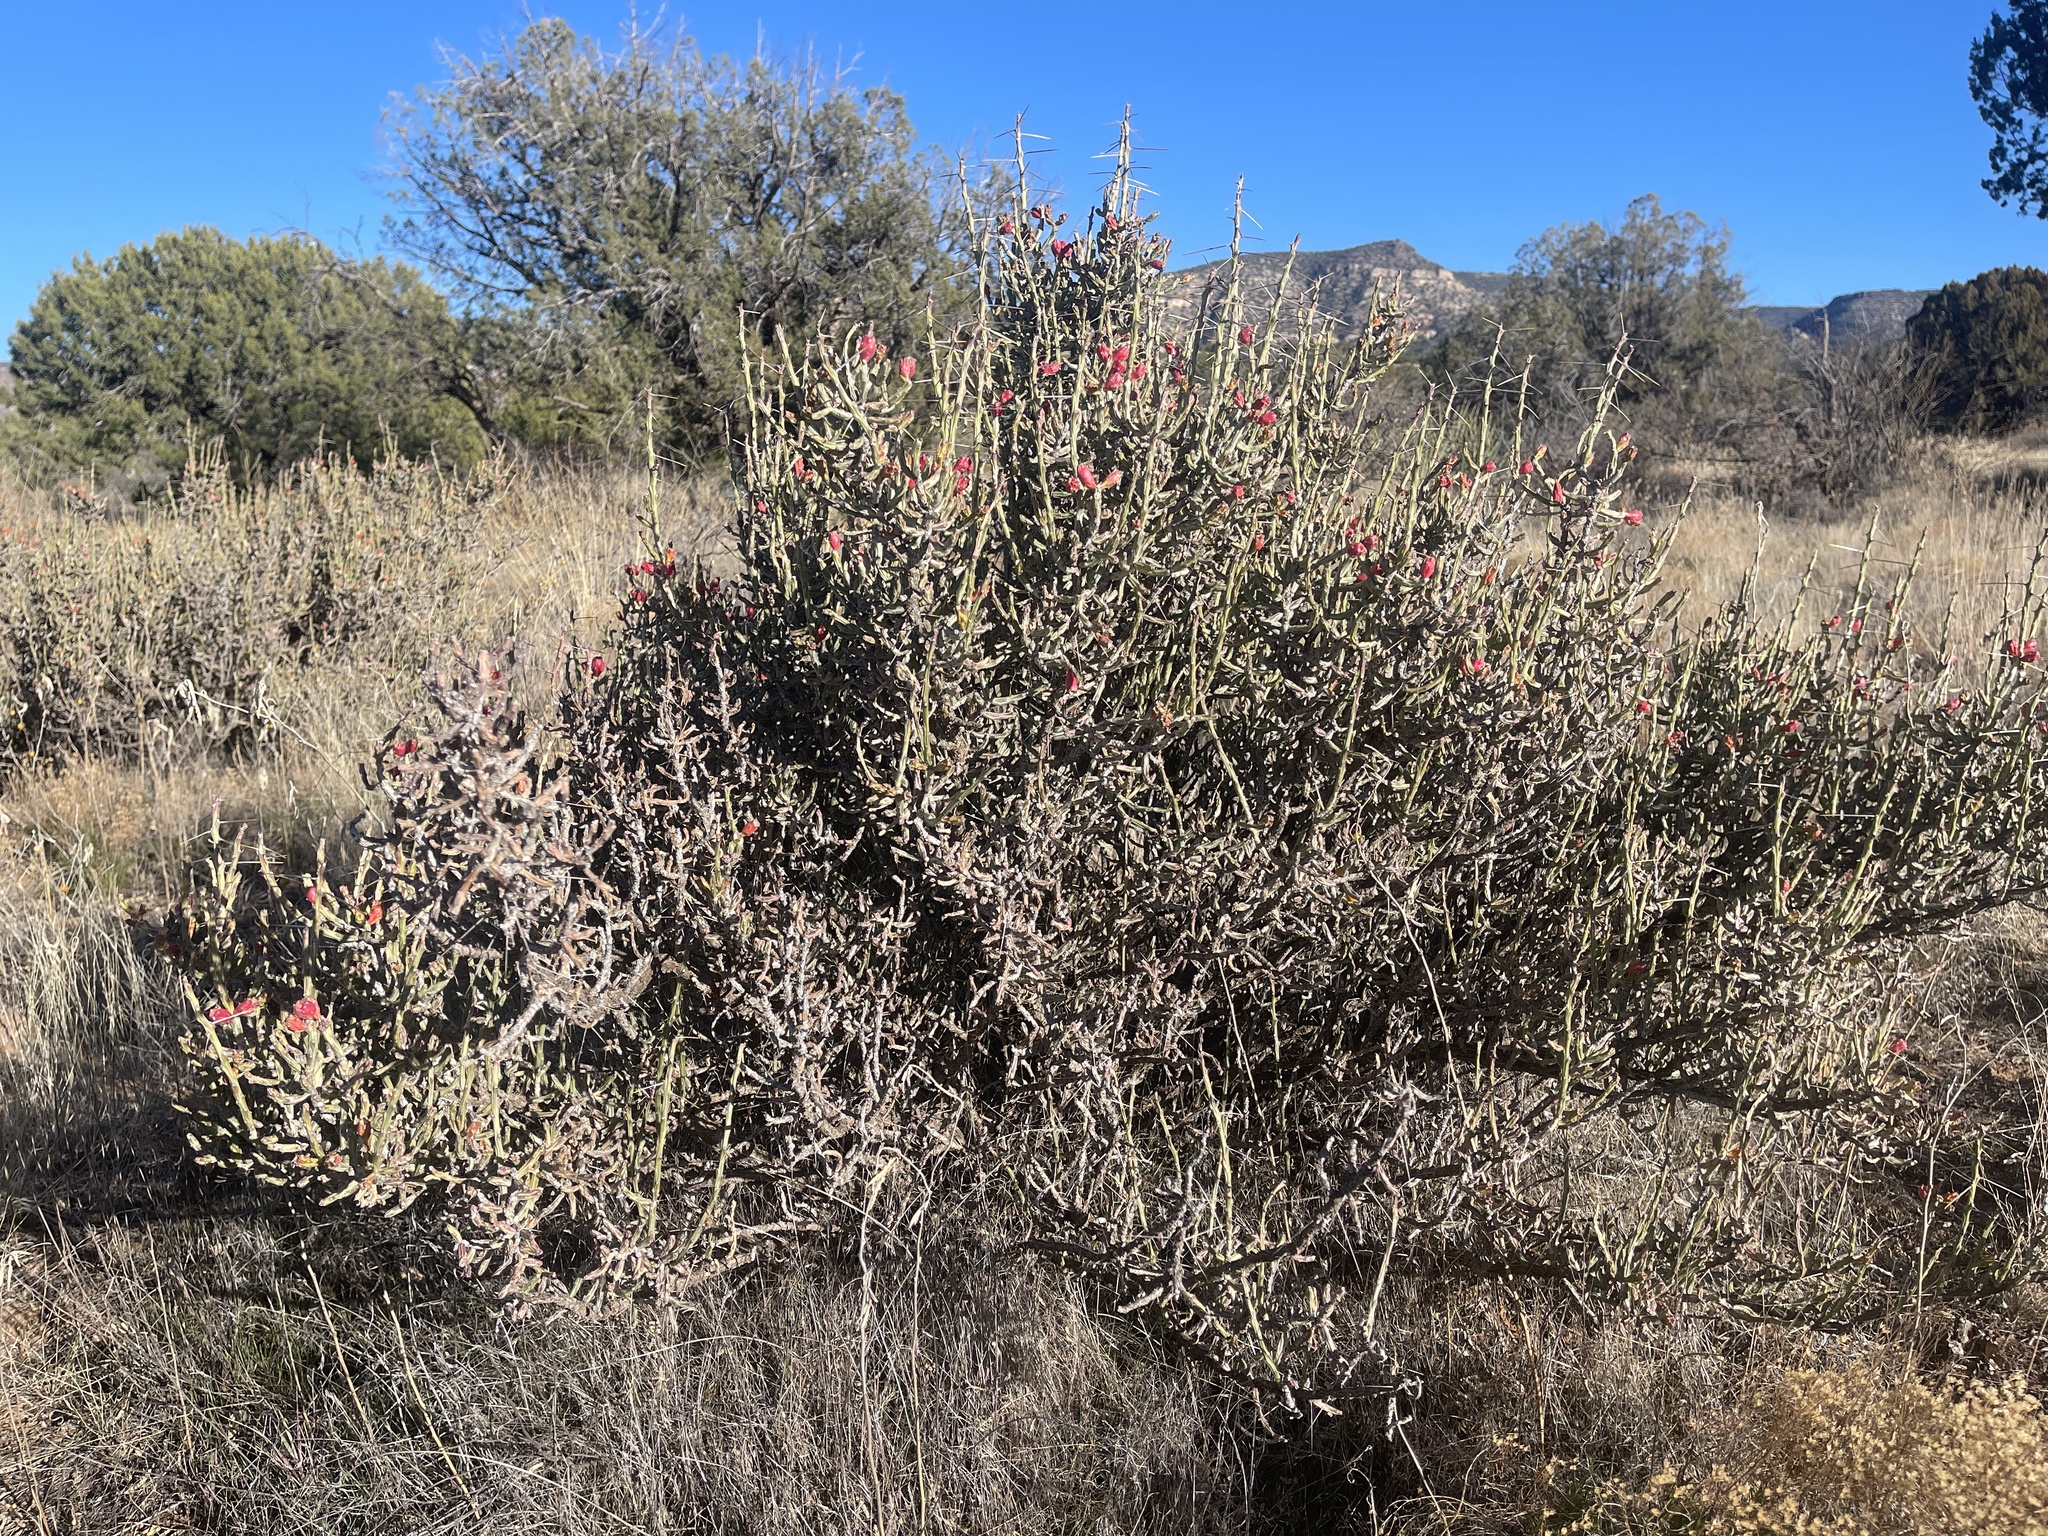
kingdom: Plantae
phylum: Tracheophyta
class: Magnoliopsida
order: Caryophyllales
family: Cactaceae
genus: Cylindropuntia
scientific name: Cylindropuntia leptocaulis
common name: Christmas cactus
